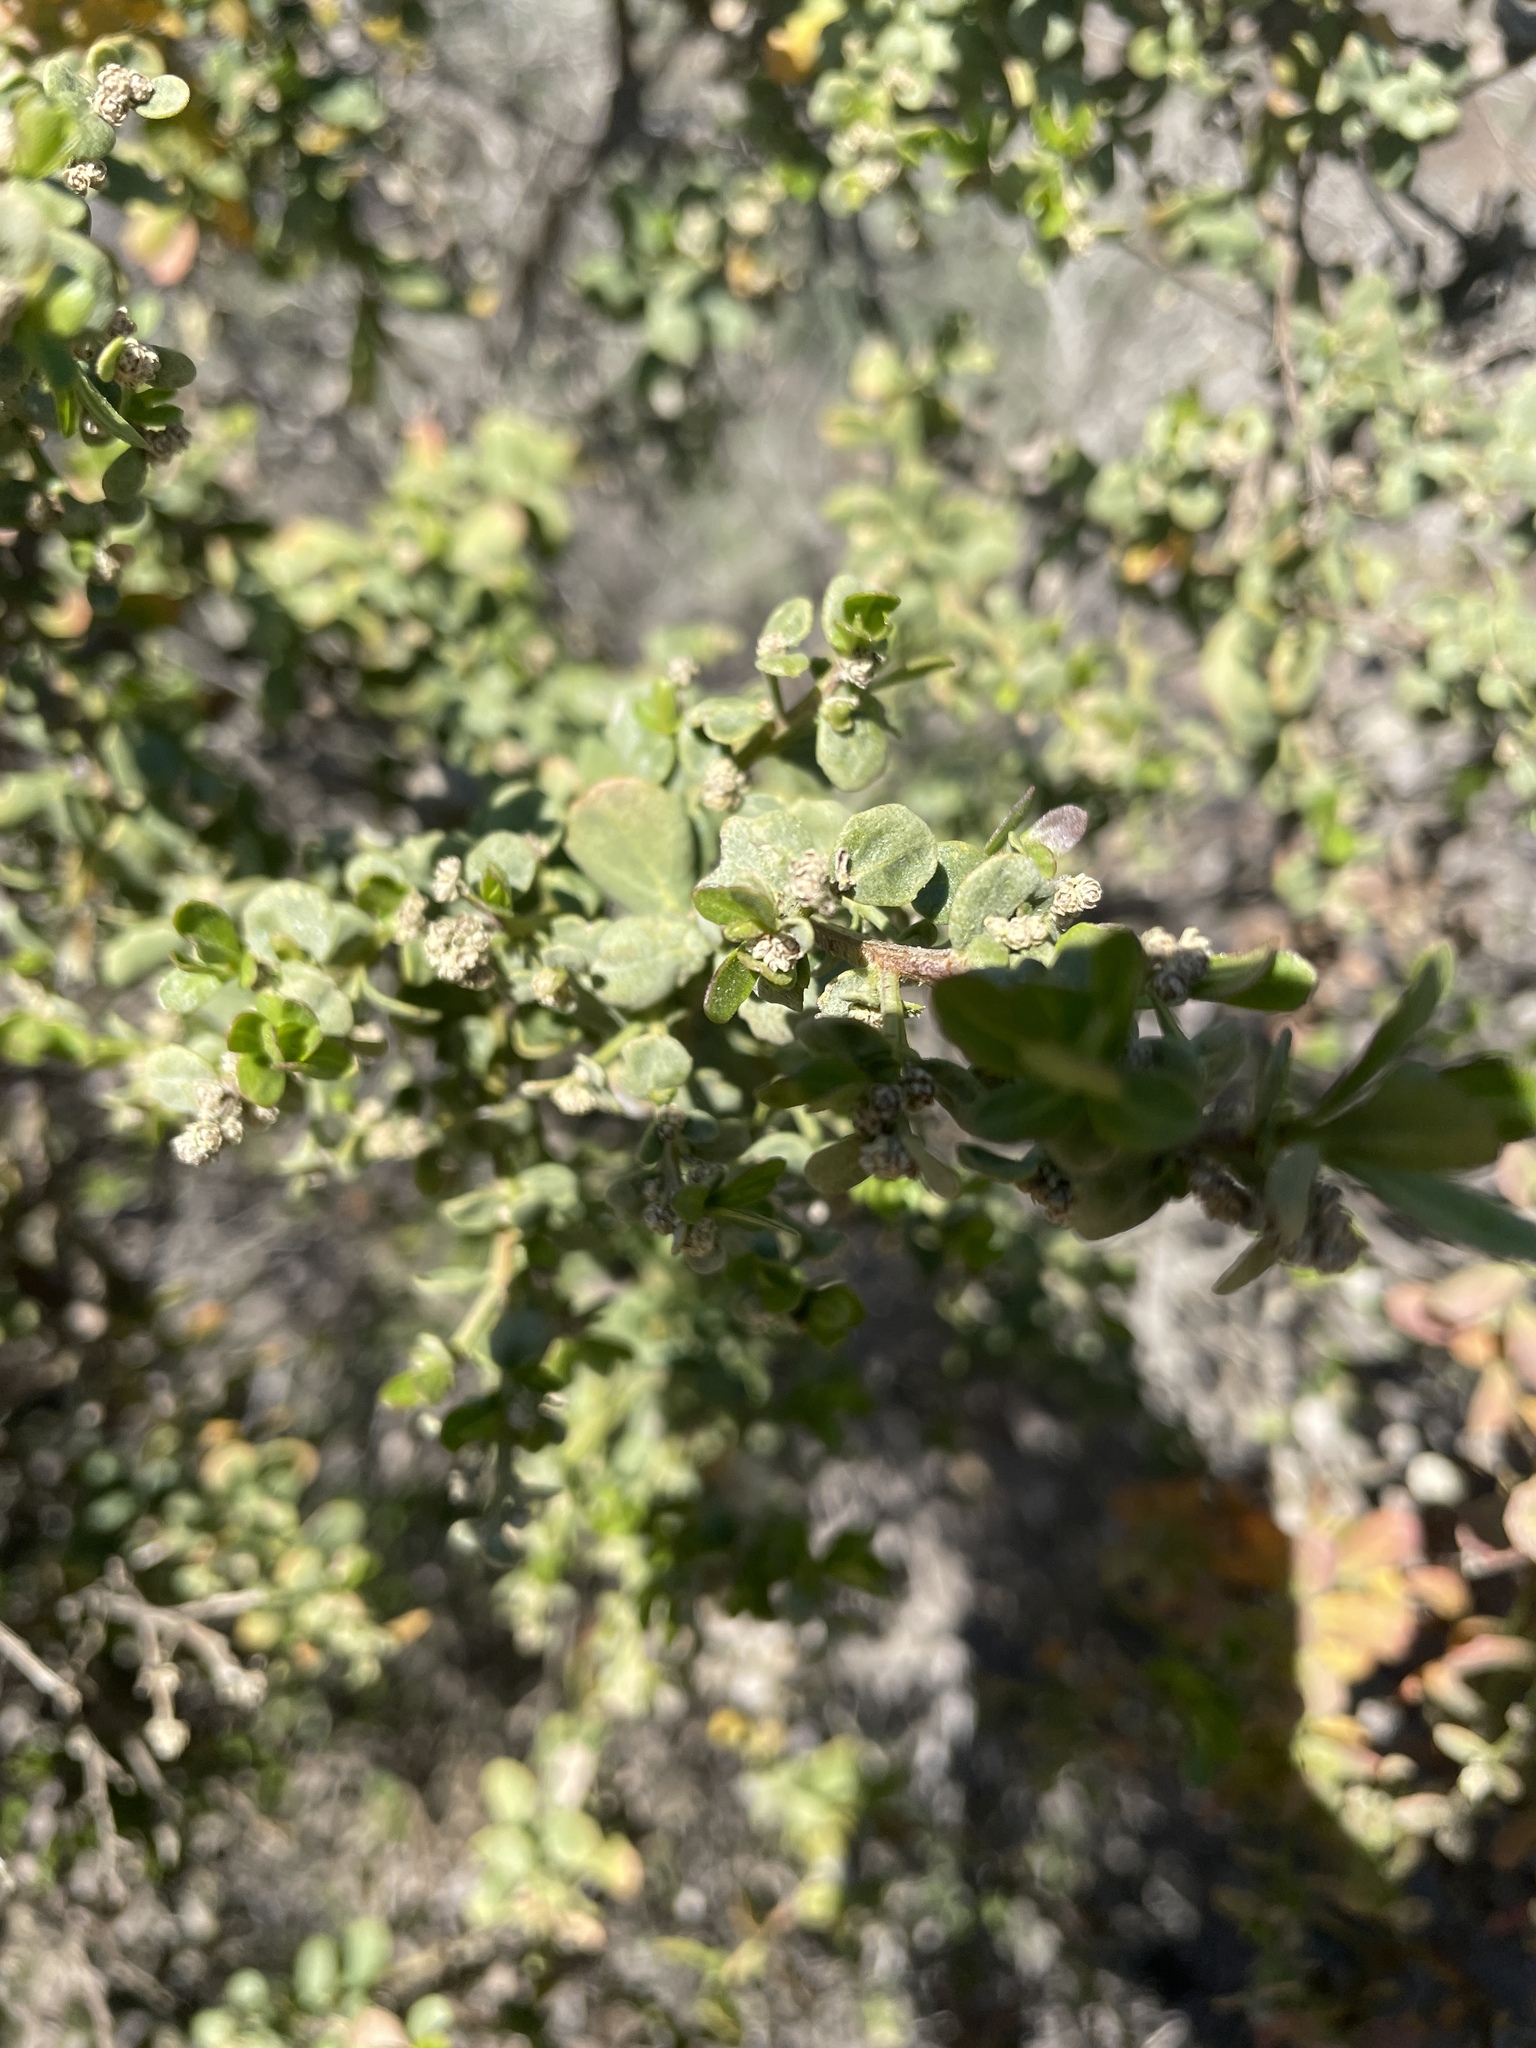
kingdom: Plantae
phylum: Tracheophyta
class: Magnoliopsida
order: Asterales
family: Asteraceae
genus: Baccharis
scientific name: Baccharis pilularis
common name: Coyotebrush
